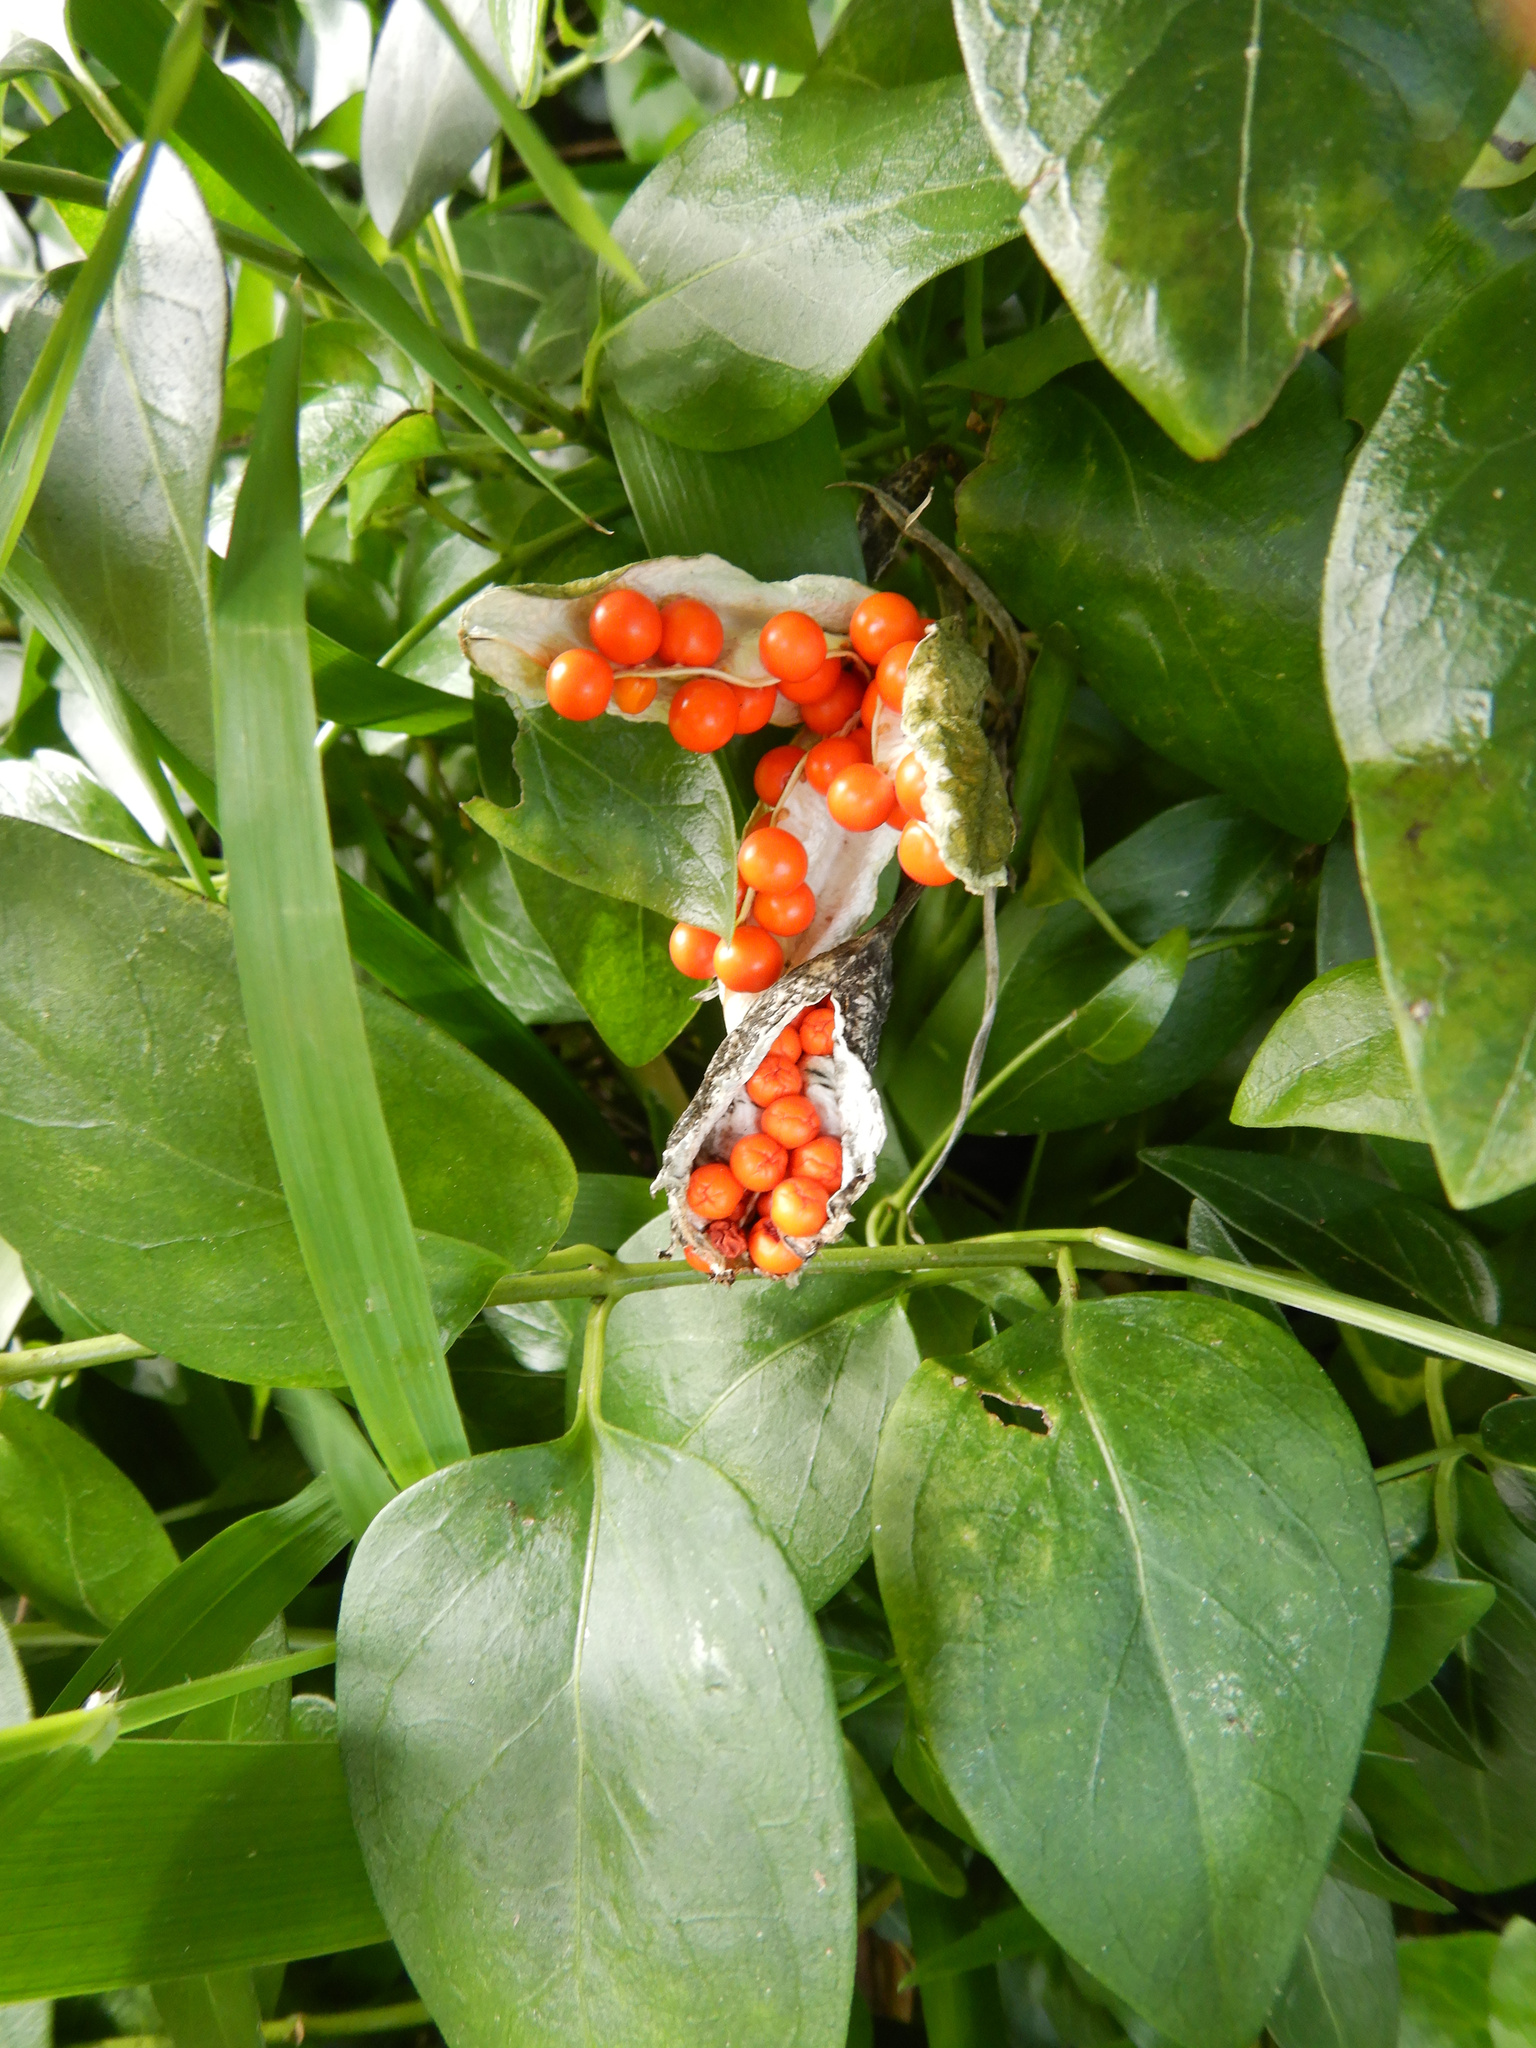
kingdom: Plantae
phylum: Tracheophyta
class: Liliopsida
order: Asparagales
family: Iridaceae
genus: Iris
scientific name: Iris foetidissima
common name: Stinking iris
